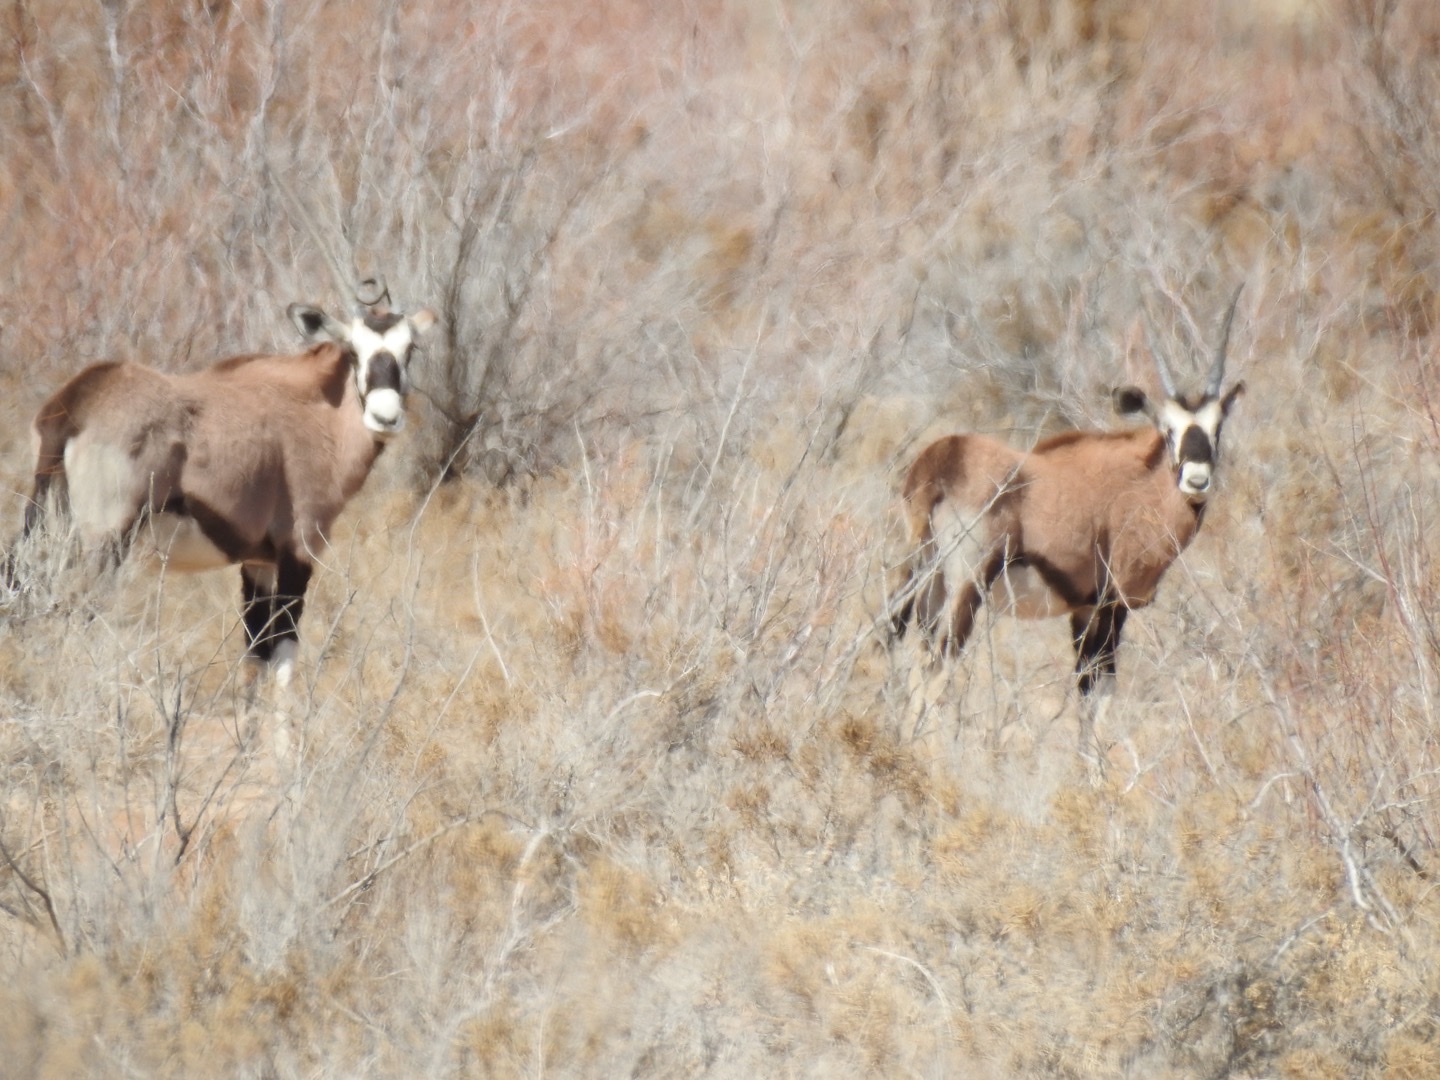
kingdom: Animalia
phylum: Chordata
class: Mammalia
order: Artiodactyla
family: Bovidae
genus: Oryx
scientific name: Oryx gazella
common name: Gemsbok
